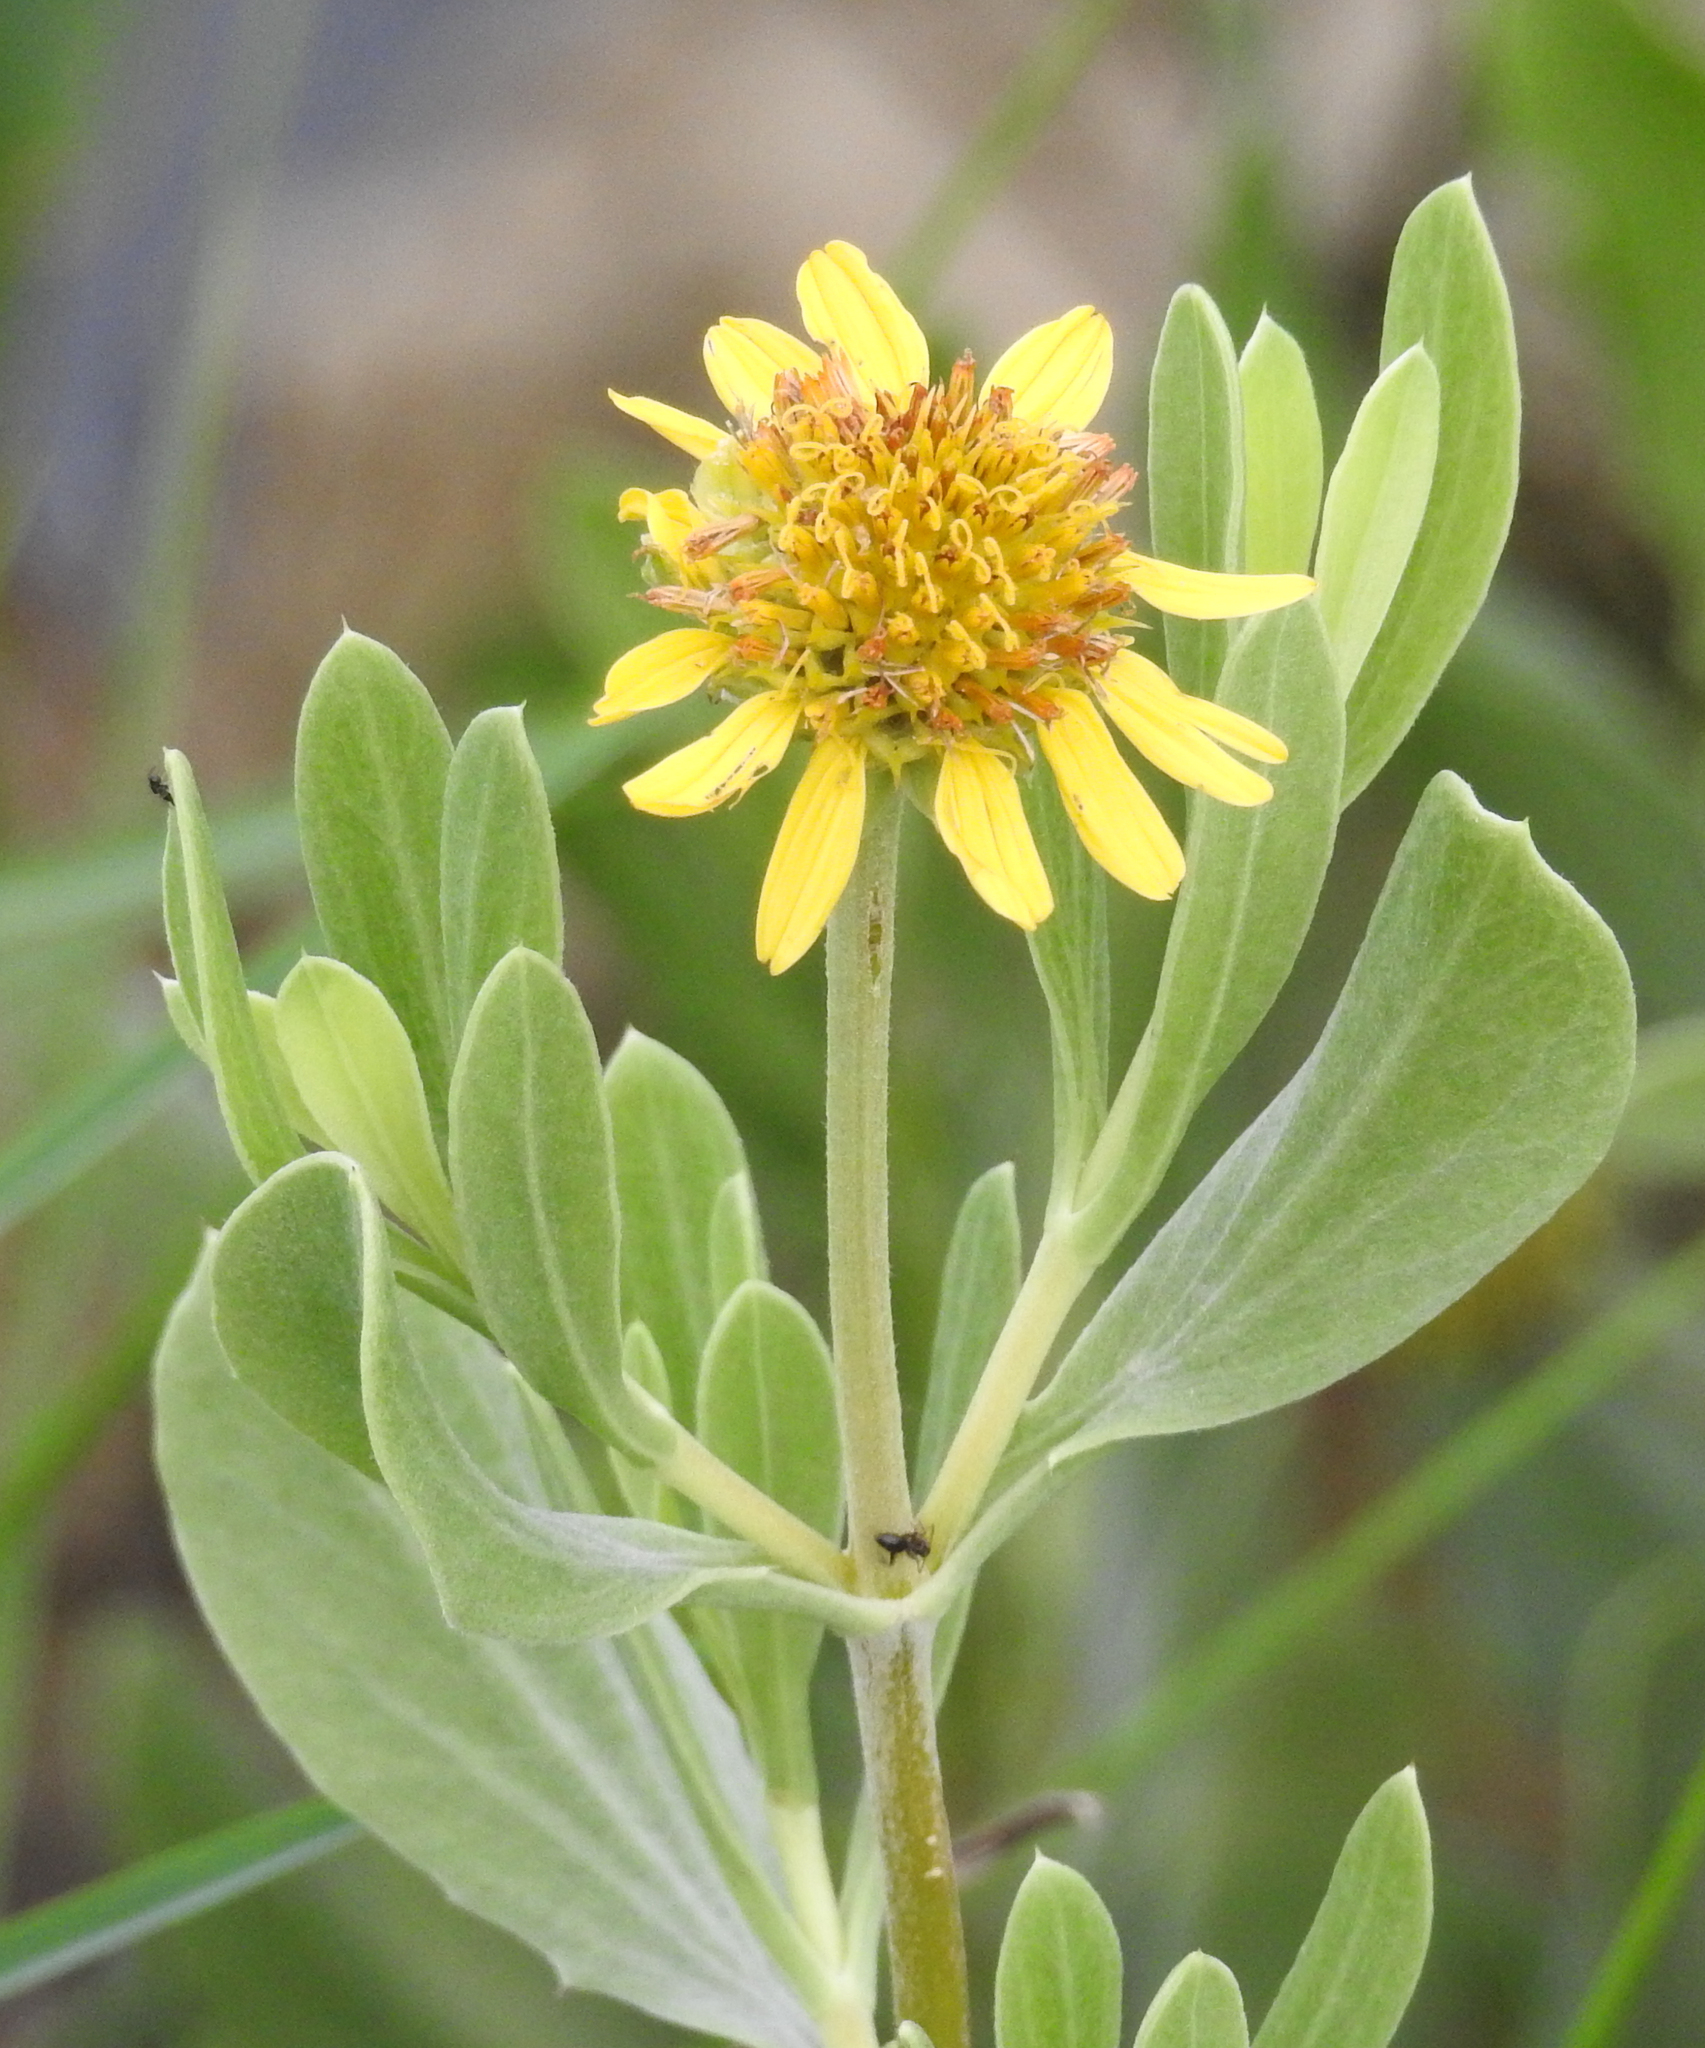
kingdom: Plantae
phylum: Tracheophyta
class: Magnoliopsida
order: Asterales
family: Asteraceae
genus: Borrichia
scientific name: Borrichia frutescens
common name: Sea oxeye
